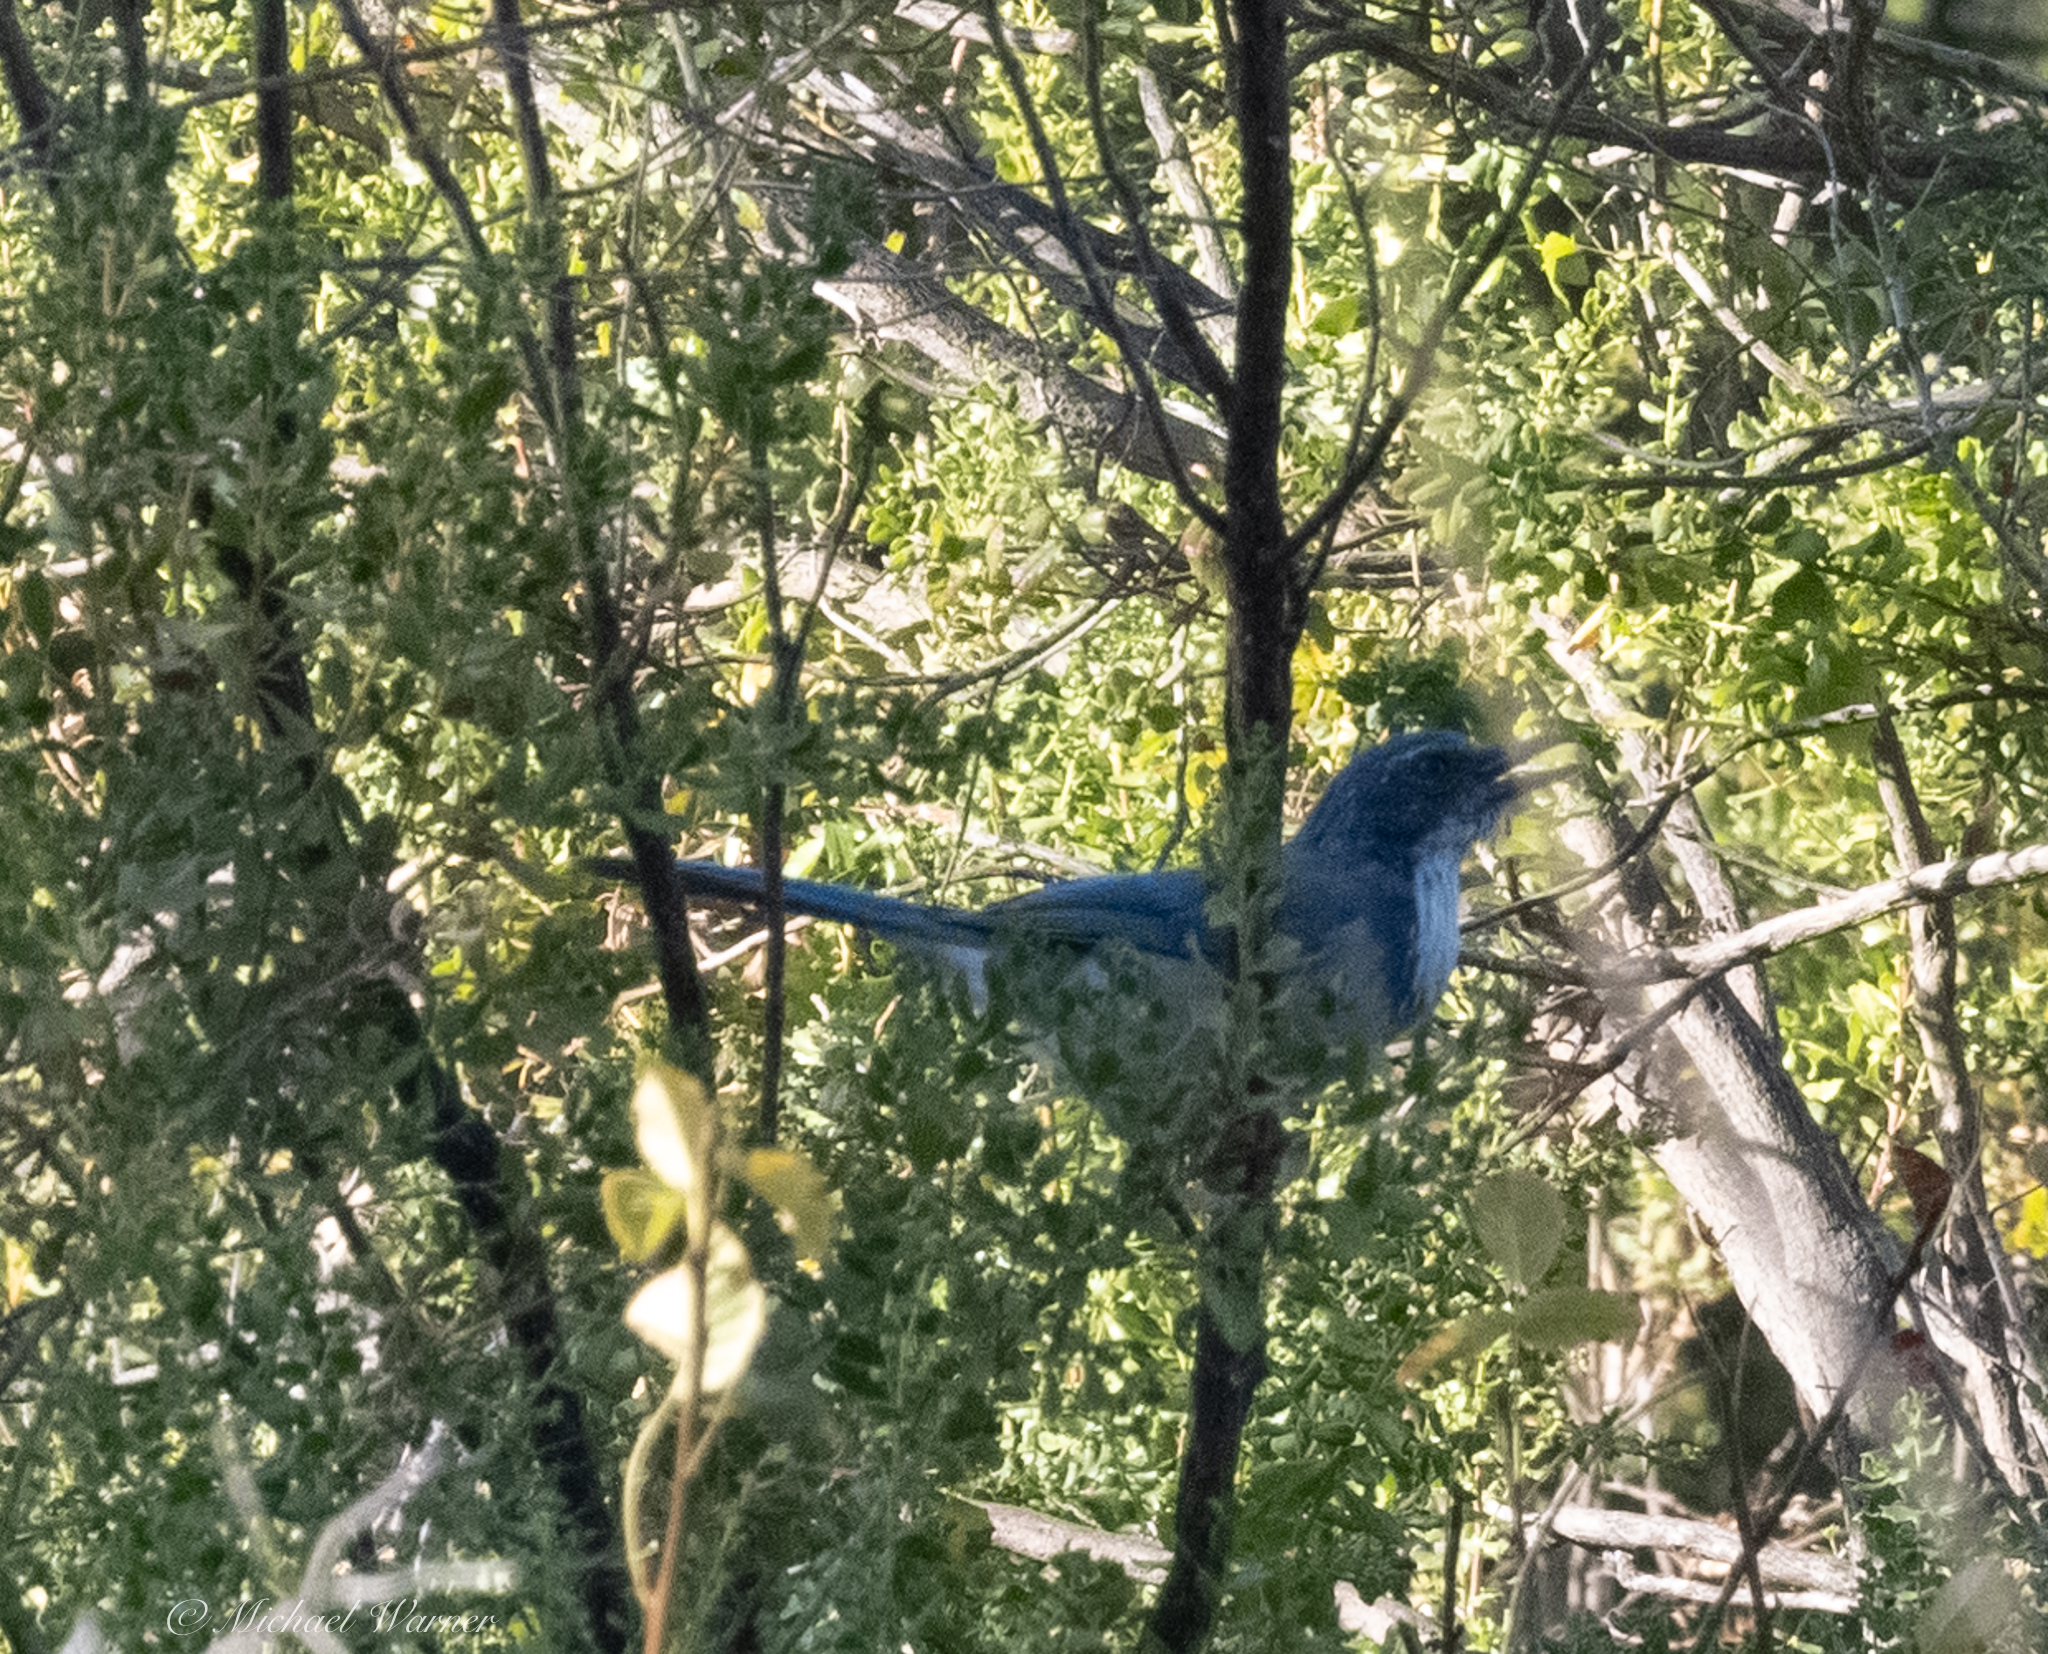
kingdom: Animalia
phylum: Chordata
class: Aves
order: Passeriformes
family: Corvidae
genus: Aphelocoma
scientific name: Aphelocoma californica
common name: California scrub-jay
